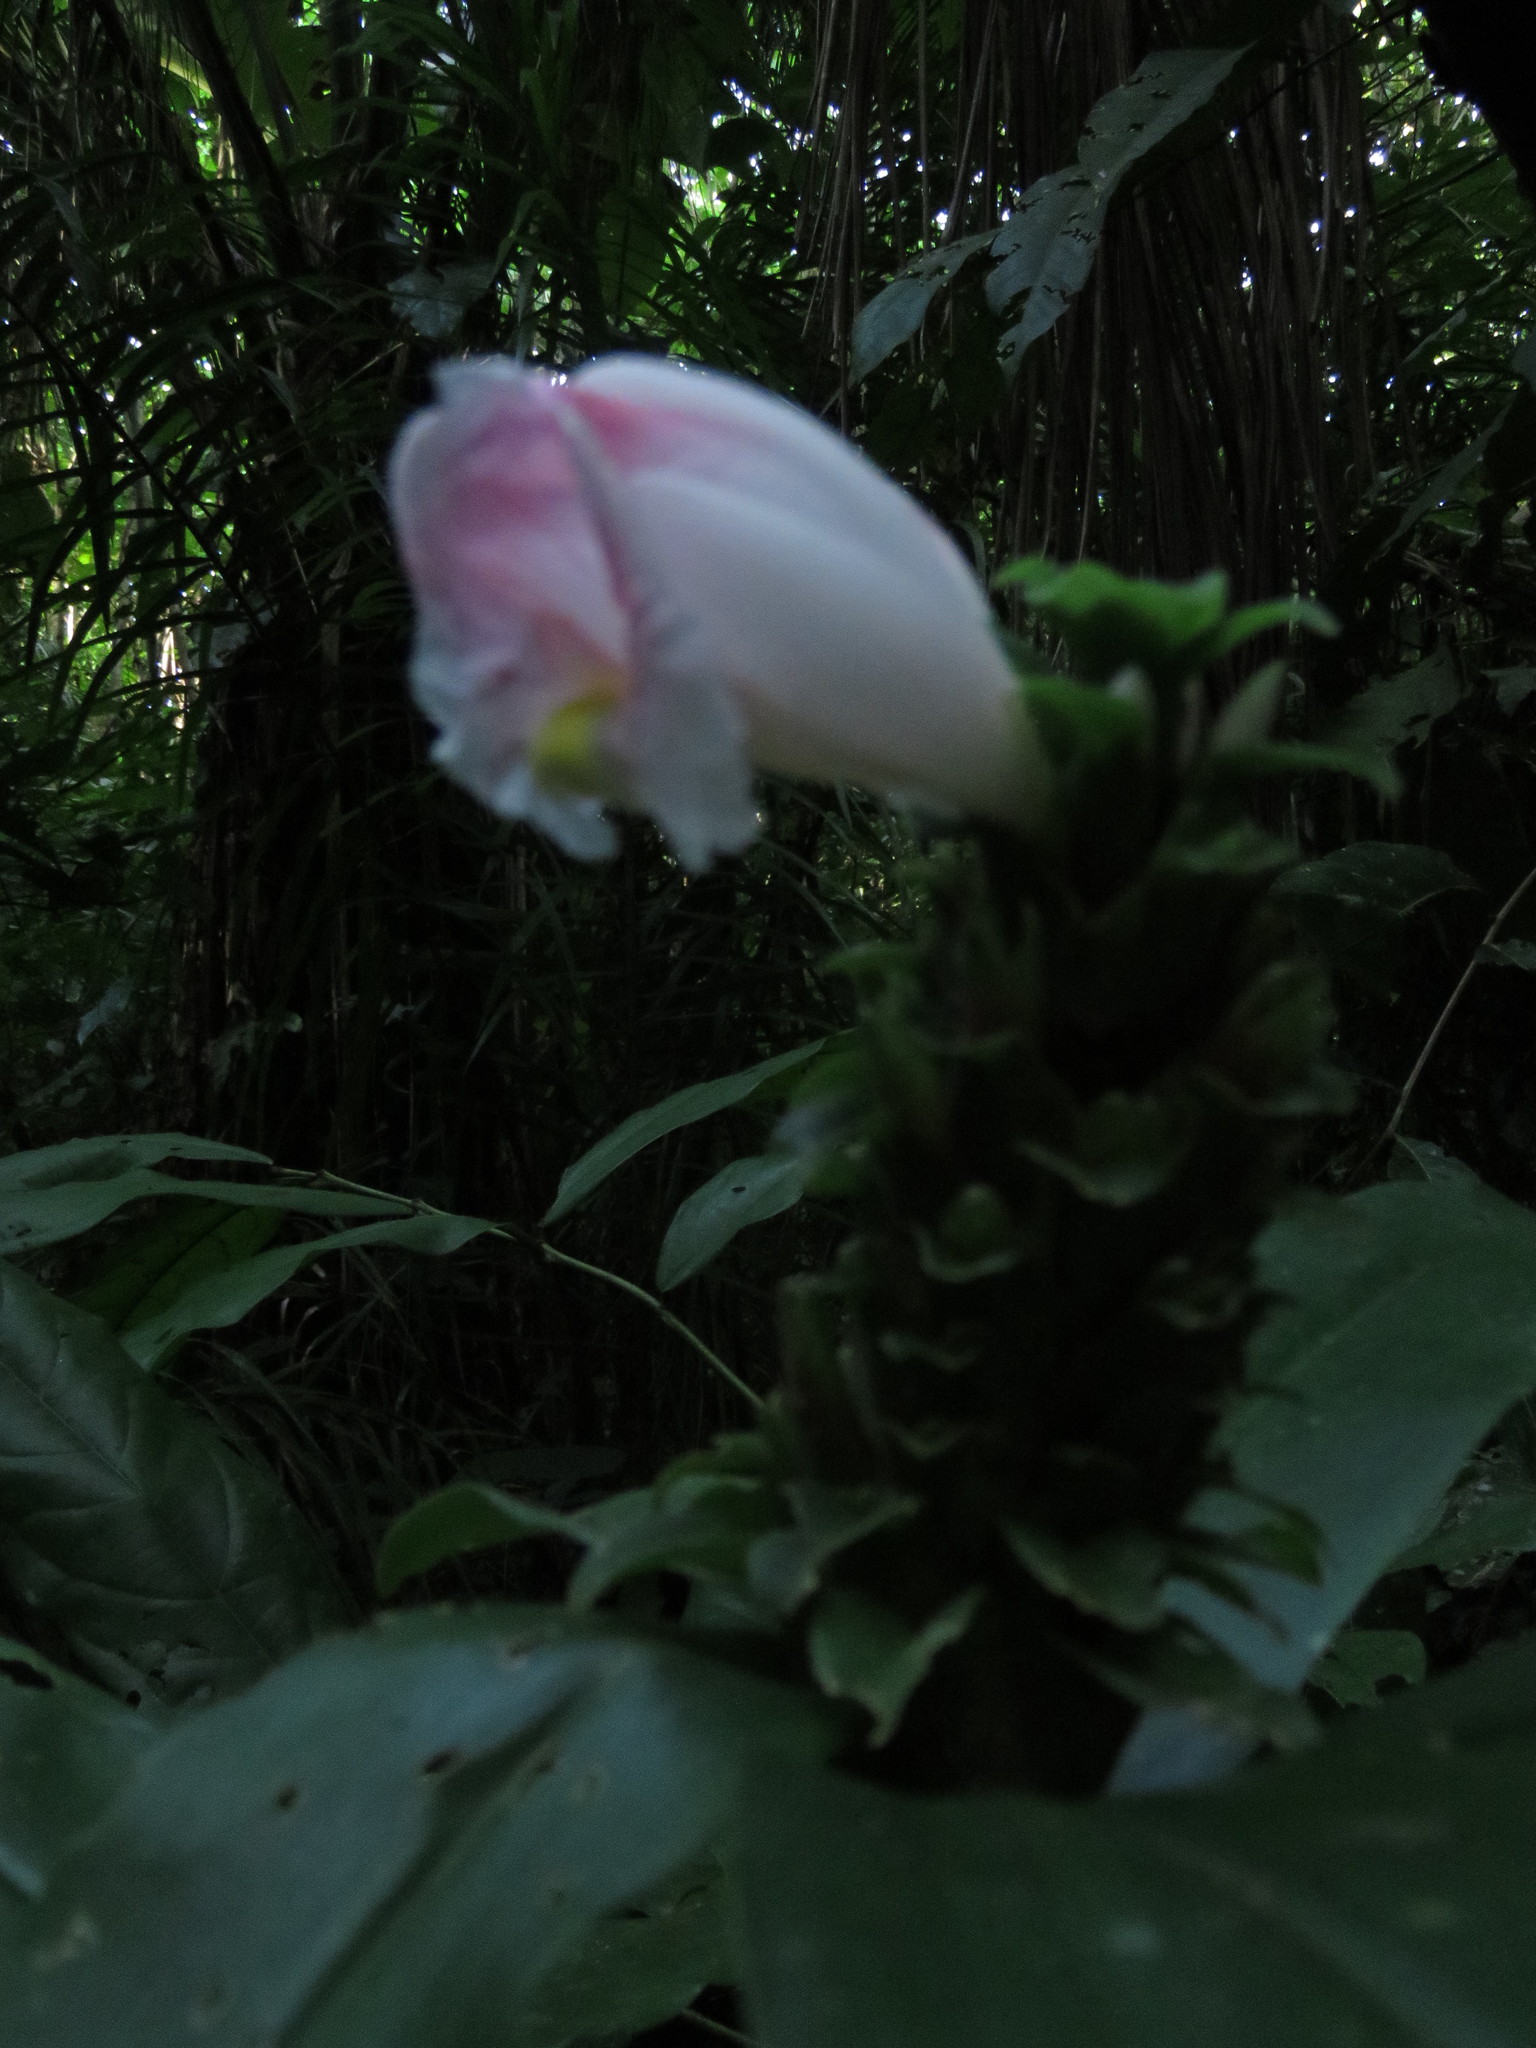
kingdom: Plantae
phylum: Tracheophyta
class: Liliopsida
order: Zingiberales
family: Costaceae
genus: Costus
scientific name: Costus arabicus
